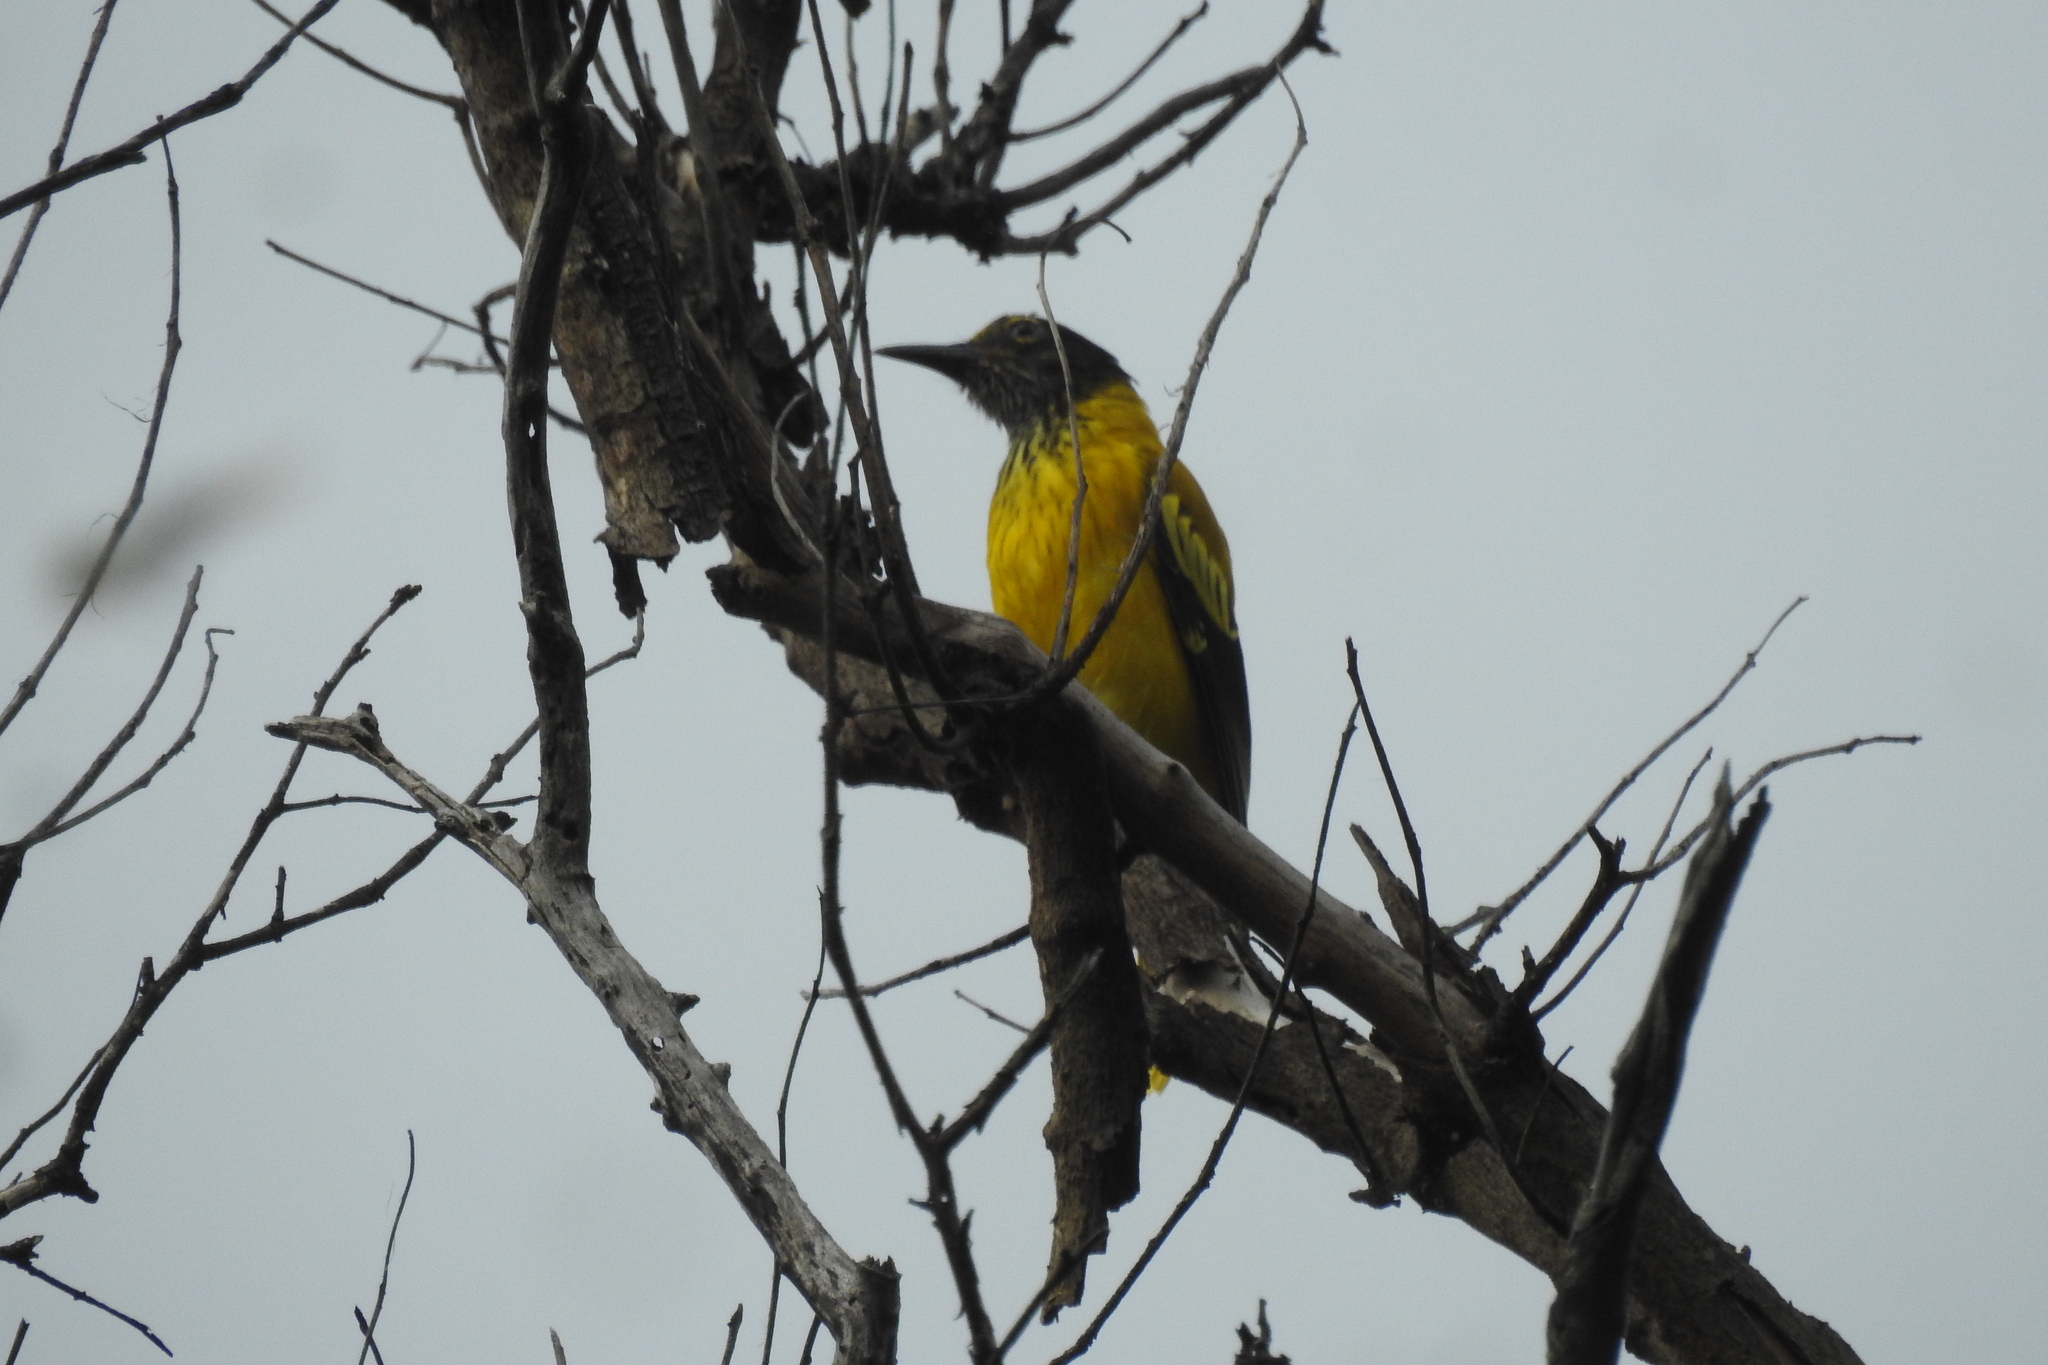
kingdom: Animalia
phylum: Chordata
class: Aves
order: Passeriformes
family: Oriolidae
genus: Oriolus
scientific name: Oriolus xanthornus
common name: Black-hooded oriole
